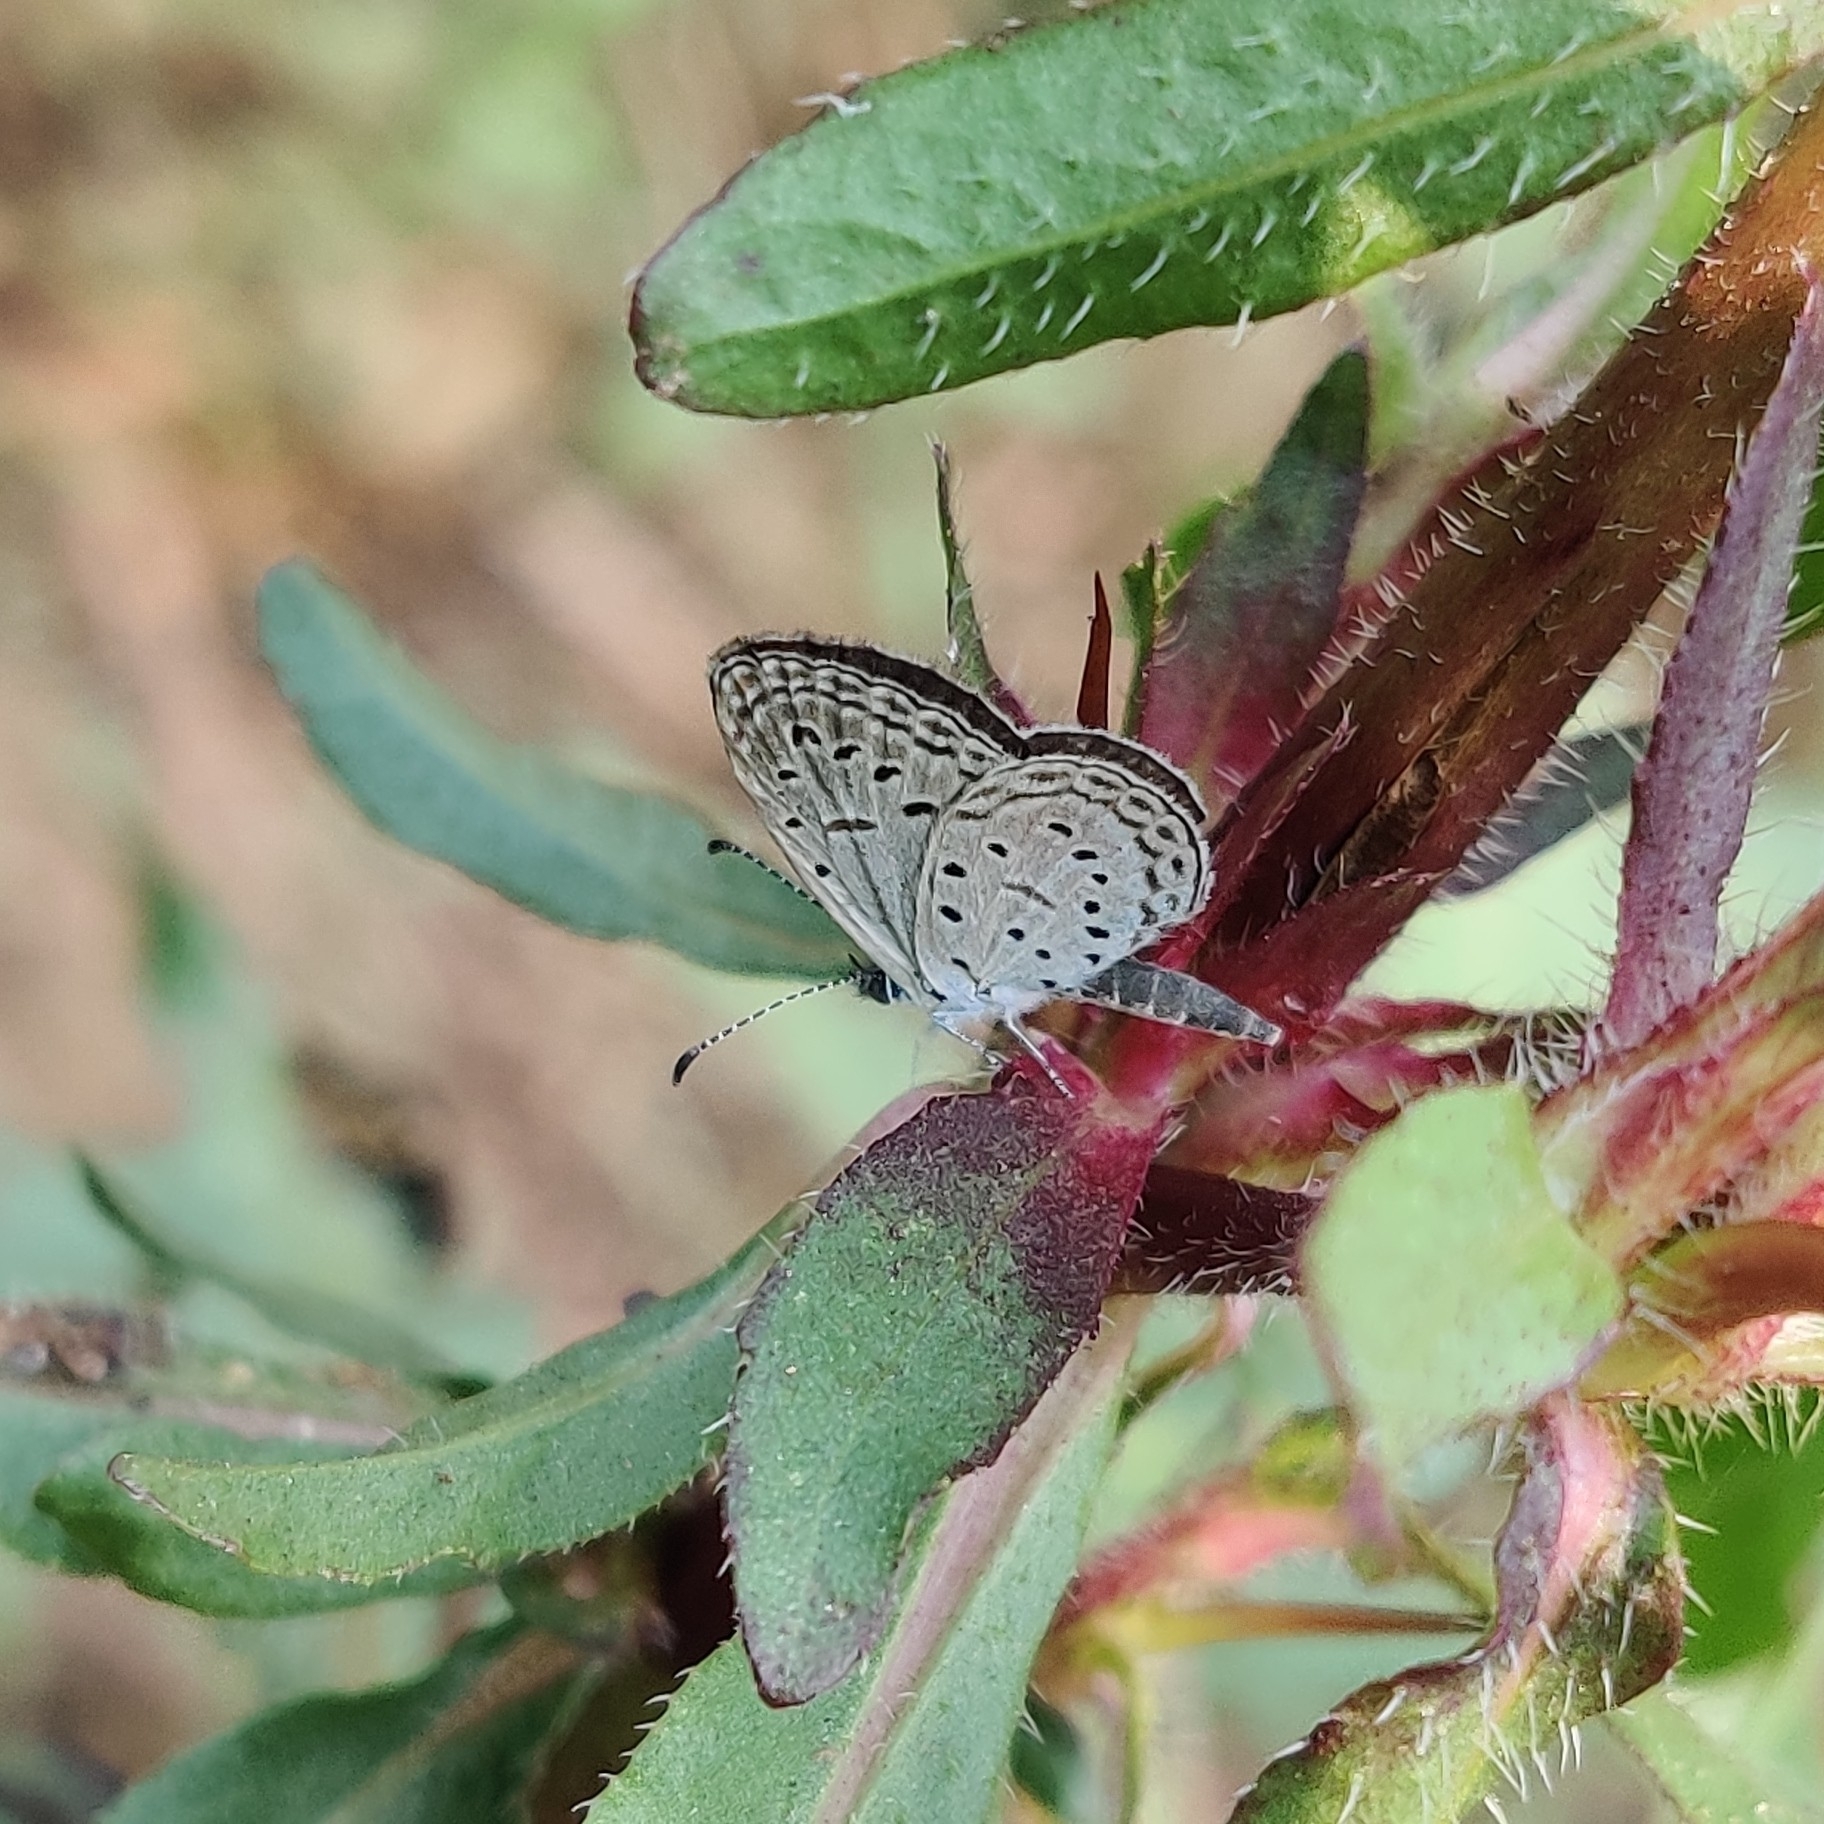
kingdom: Animalia
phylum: Arthropoda
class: Insecta
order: Lepidoptera
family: Lycaenidae
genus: Zizula
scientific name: Zizula hylax
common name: Gaika blue
